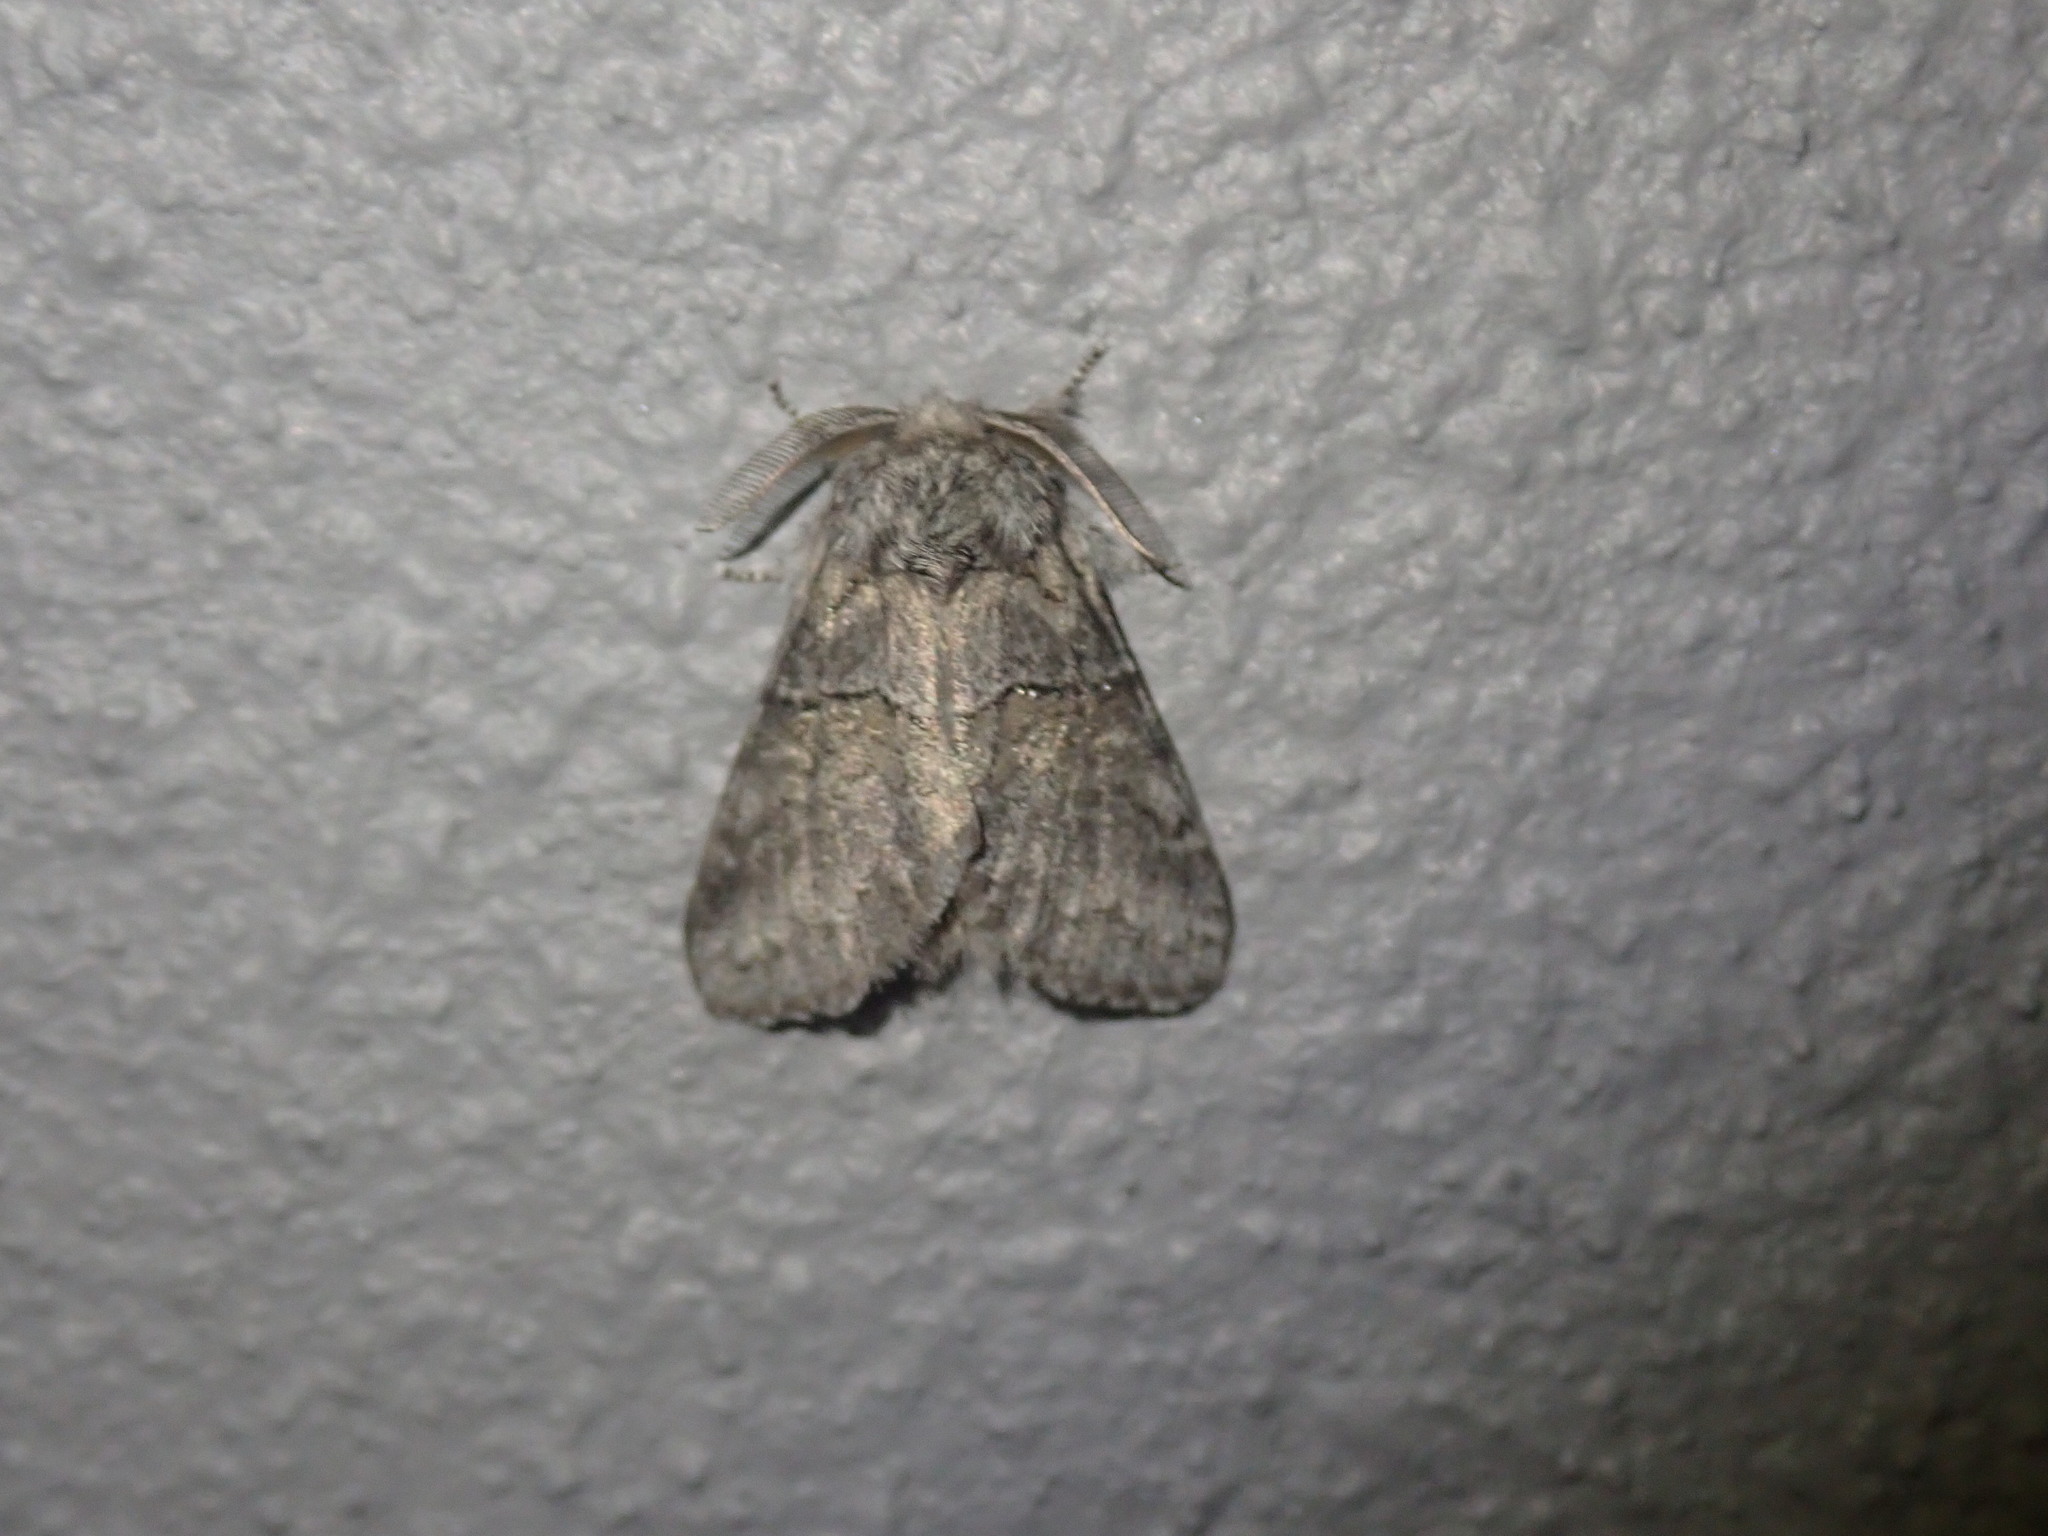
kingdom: Animalia
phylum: Arthropoda
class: Insecta
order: Lepidoptera
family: Notodontidae
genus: Gluphisia
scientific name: Gluphisia septentrionis
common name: Common gluphisia
